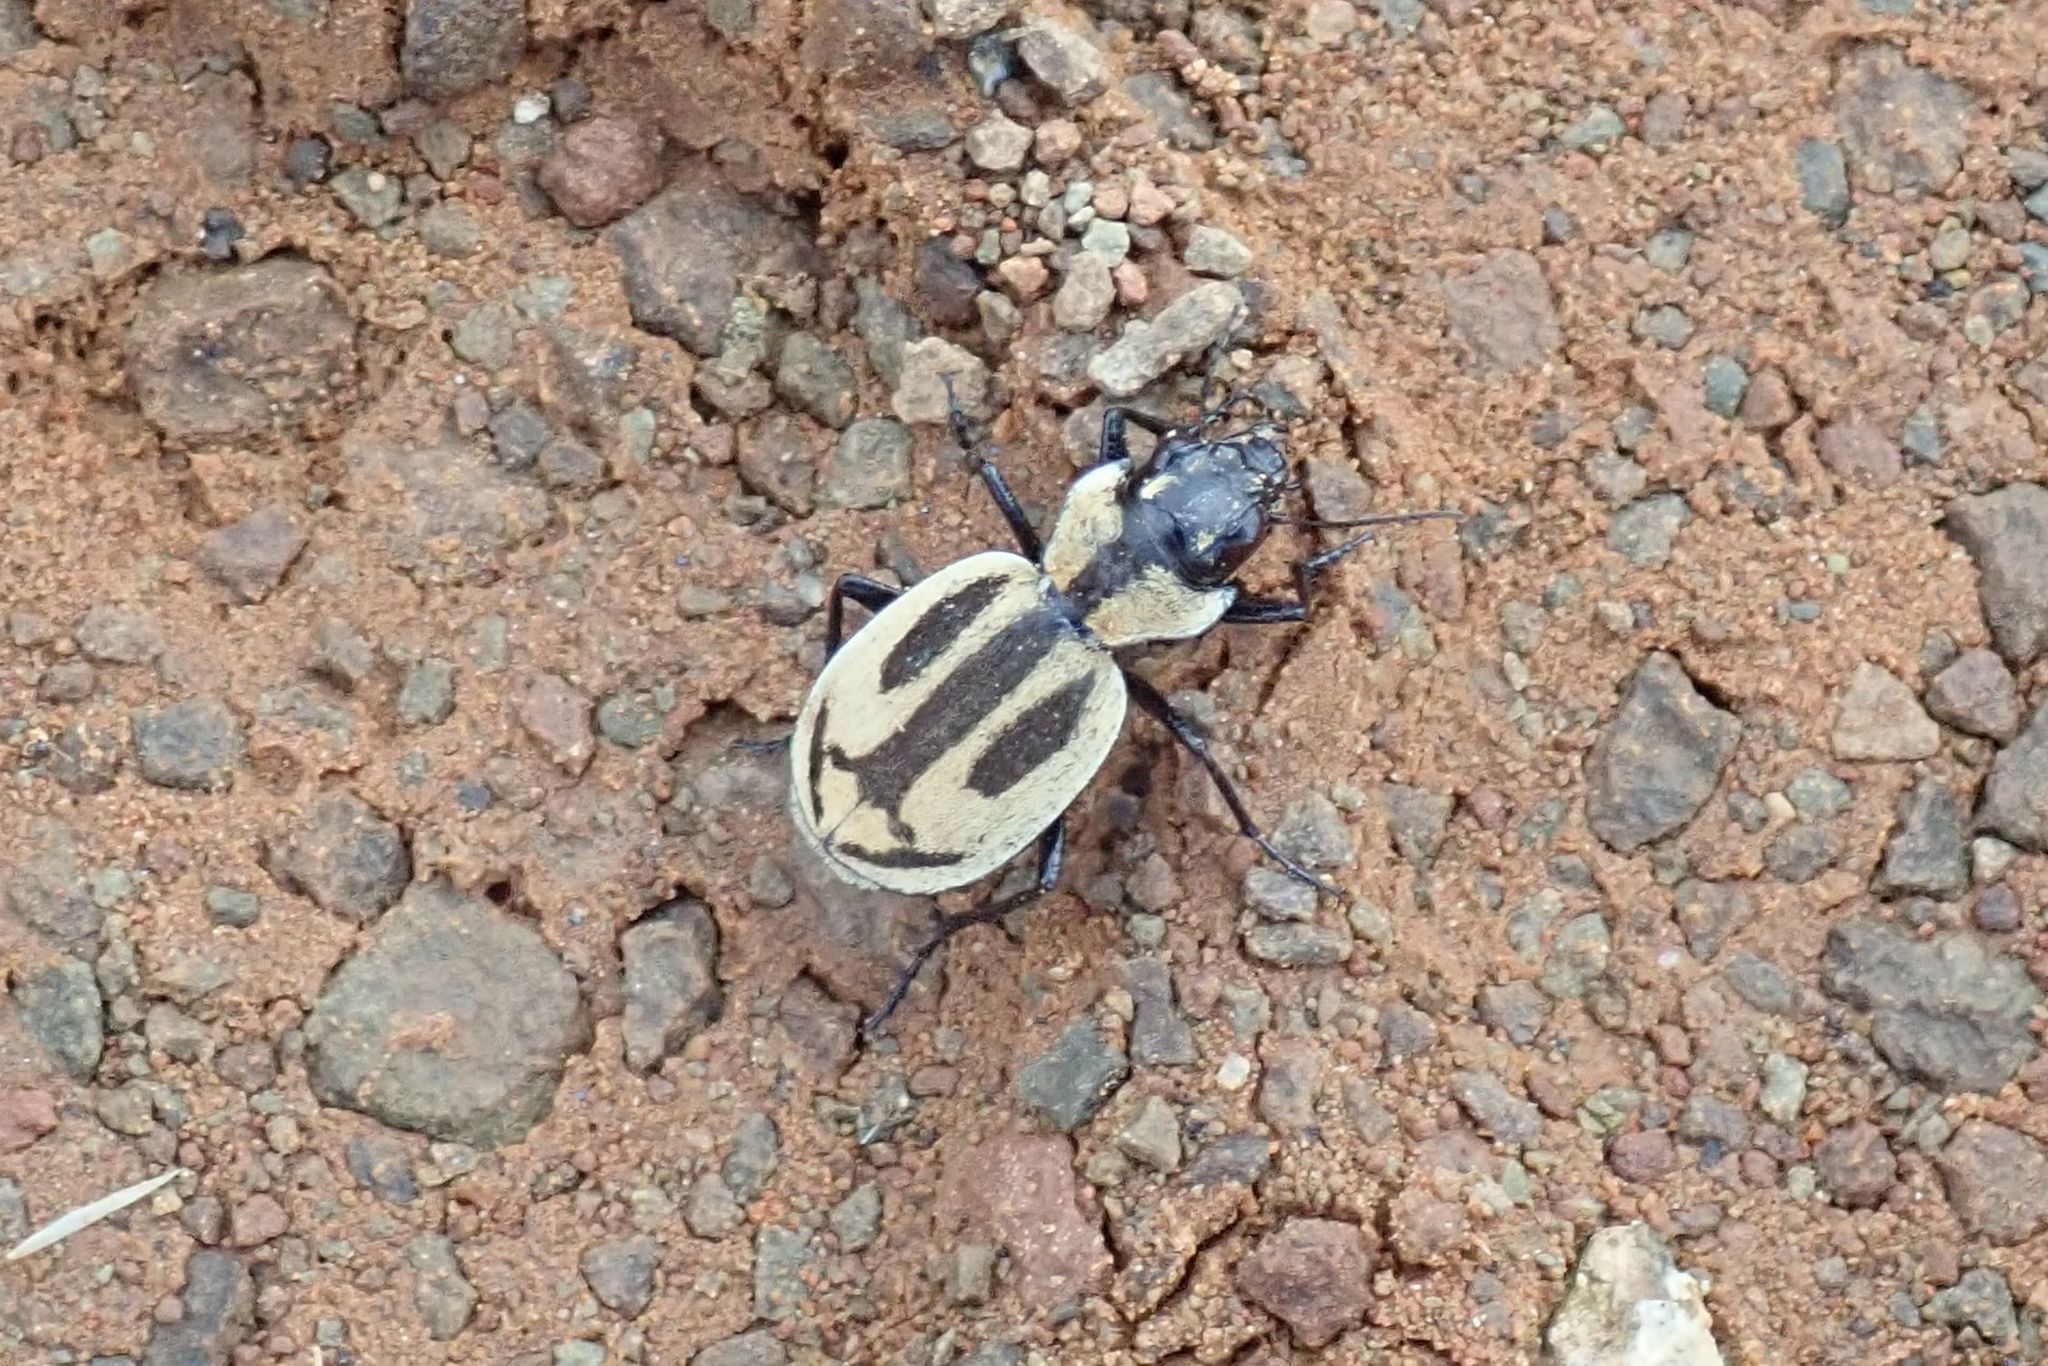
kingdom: Animalia
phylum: Arthropoda
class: Insecta
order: Coleoptera
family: Carabidae
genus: Graphipterus
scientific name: Graphipterus ancora
